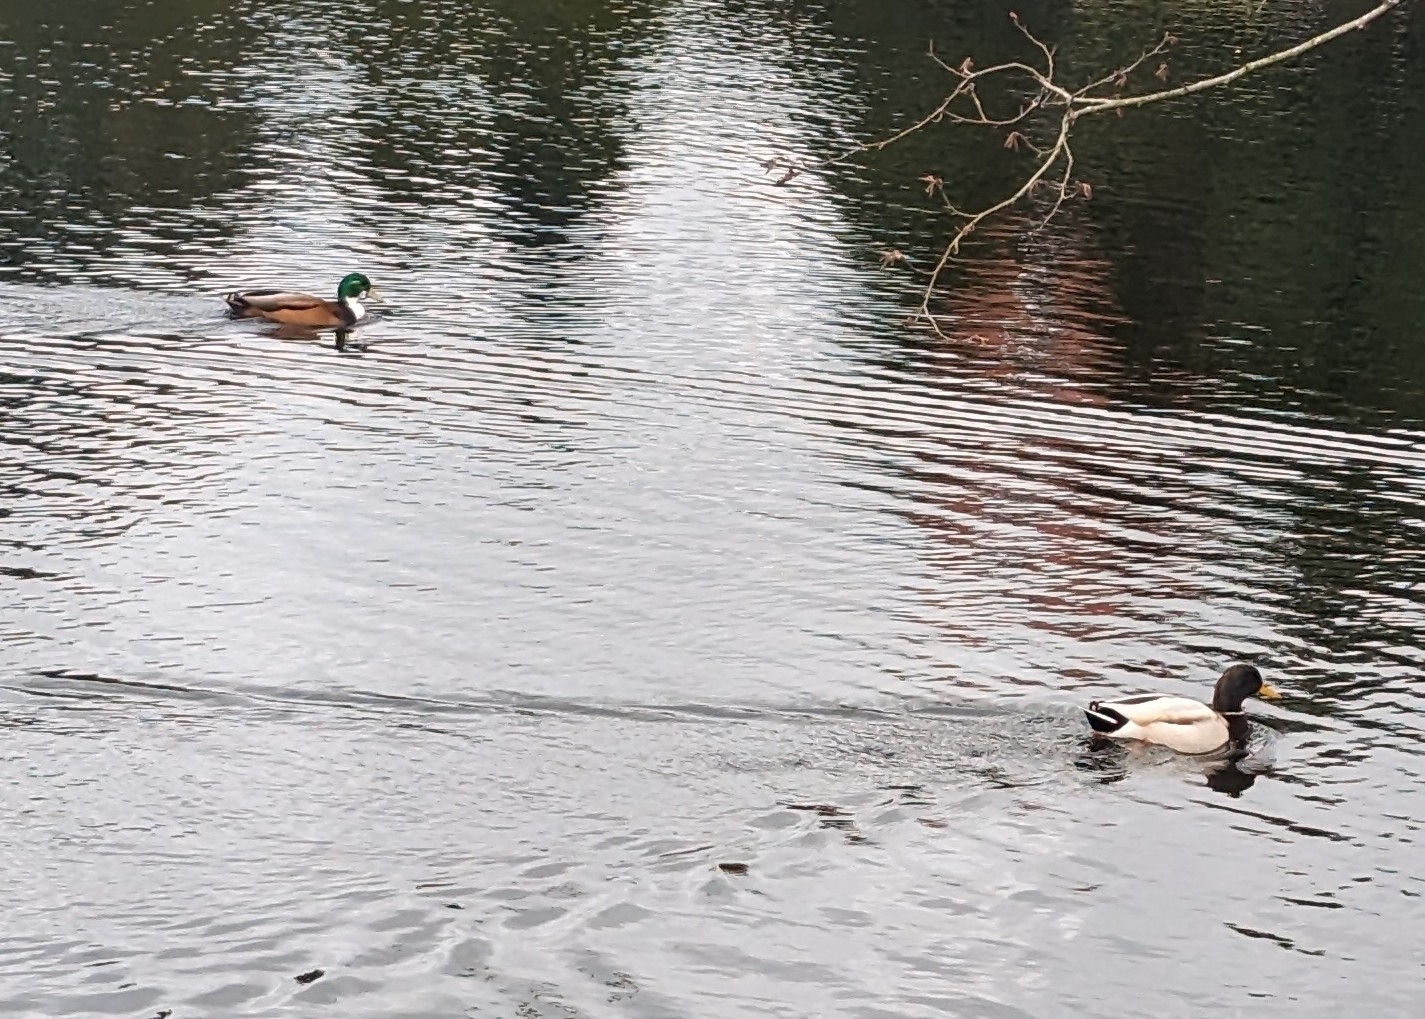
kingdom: Animalia
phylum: Chordata
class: Aves
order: Anseriformes
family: Anatidae
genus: Anas
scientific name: Anas platyrhynchos
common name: Mallard
